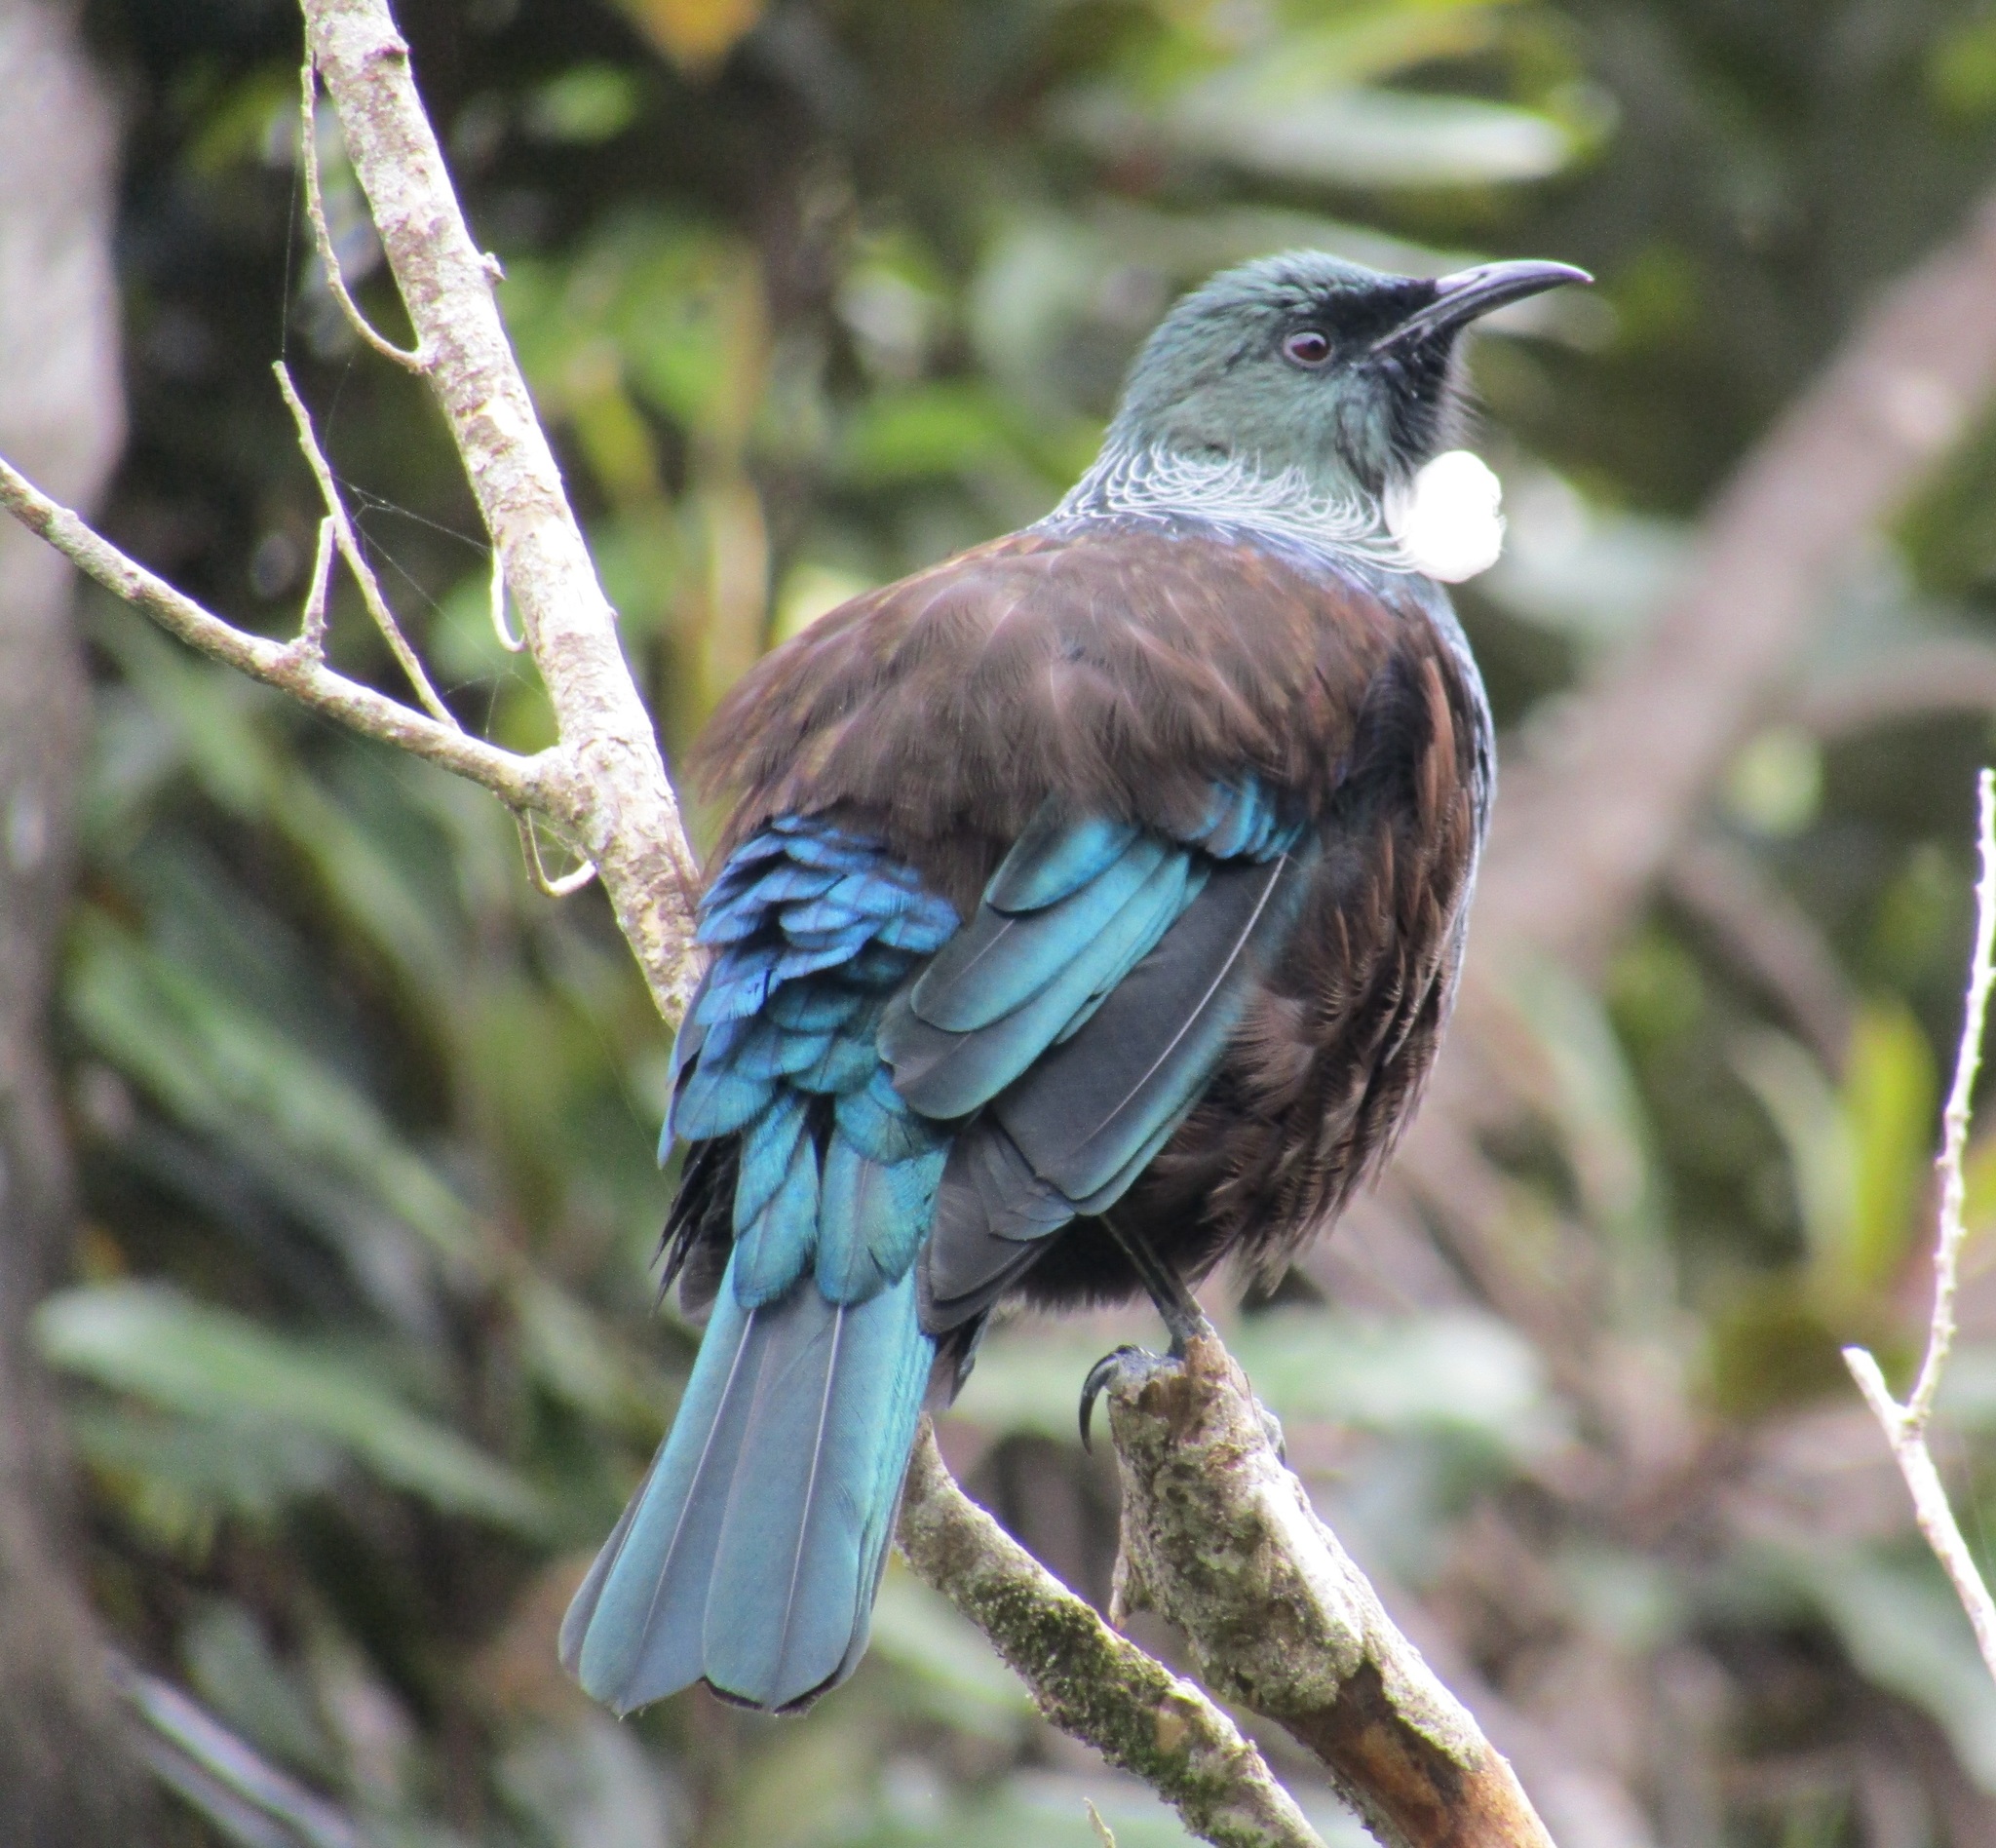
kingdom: Animalia
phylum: Chordata
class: Aves
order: Passeriformes
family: Meliphagidae
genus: Prosthemadera
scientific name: Prosthemadera novaeseelandiae
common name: Tui
